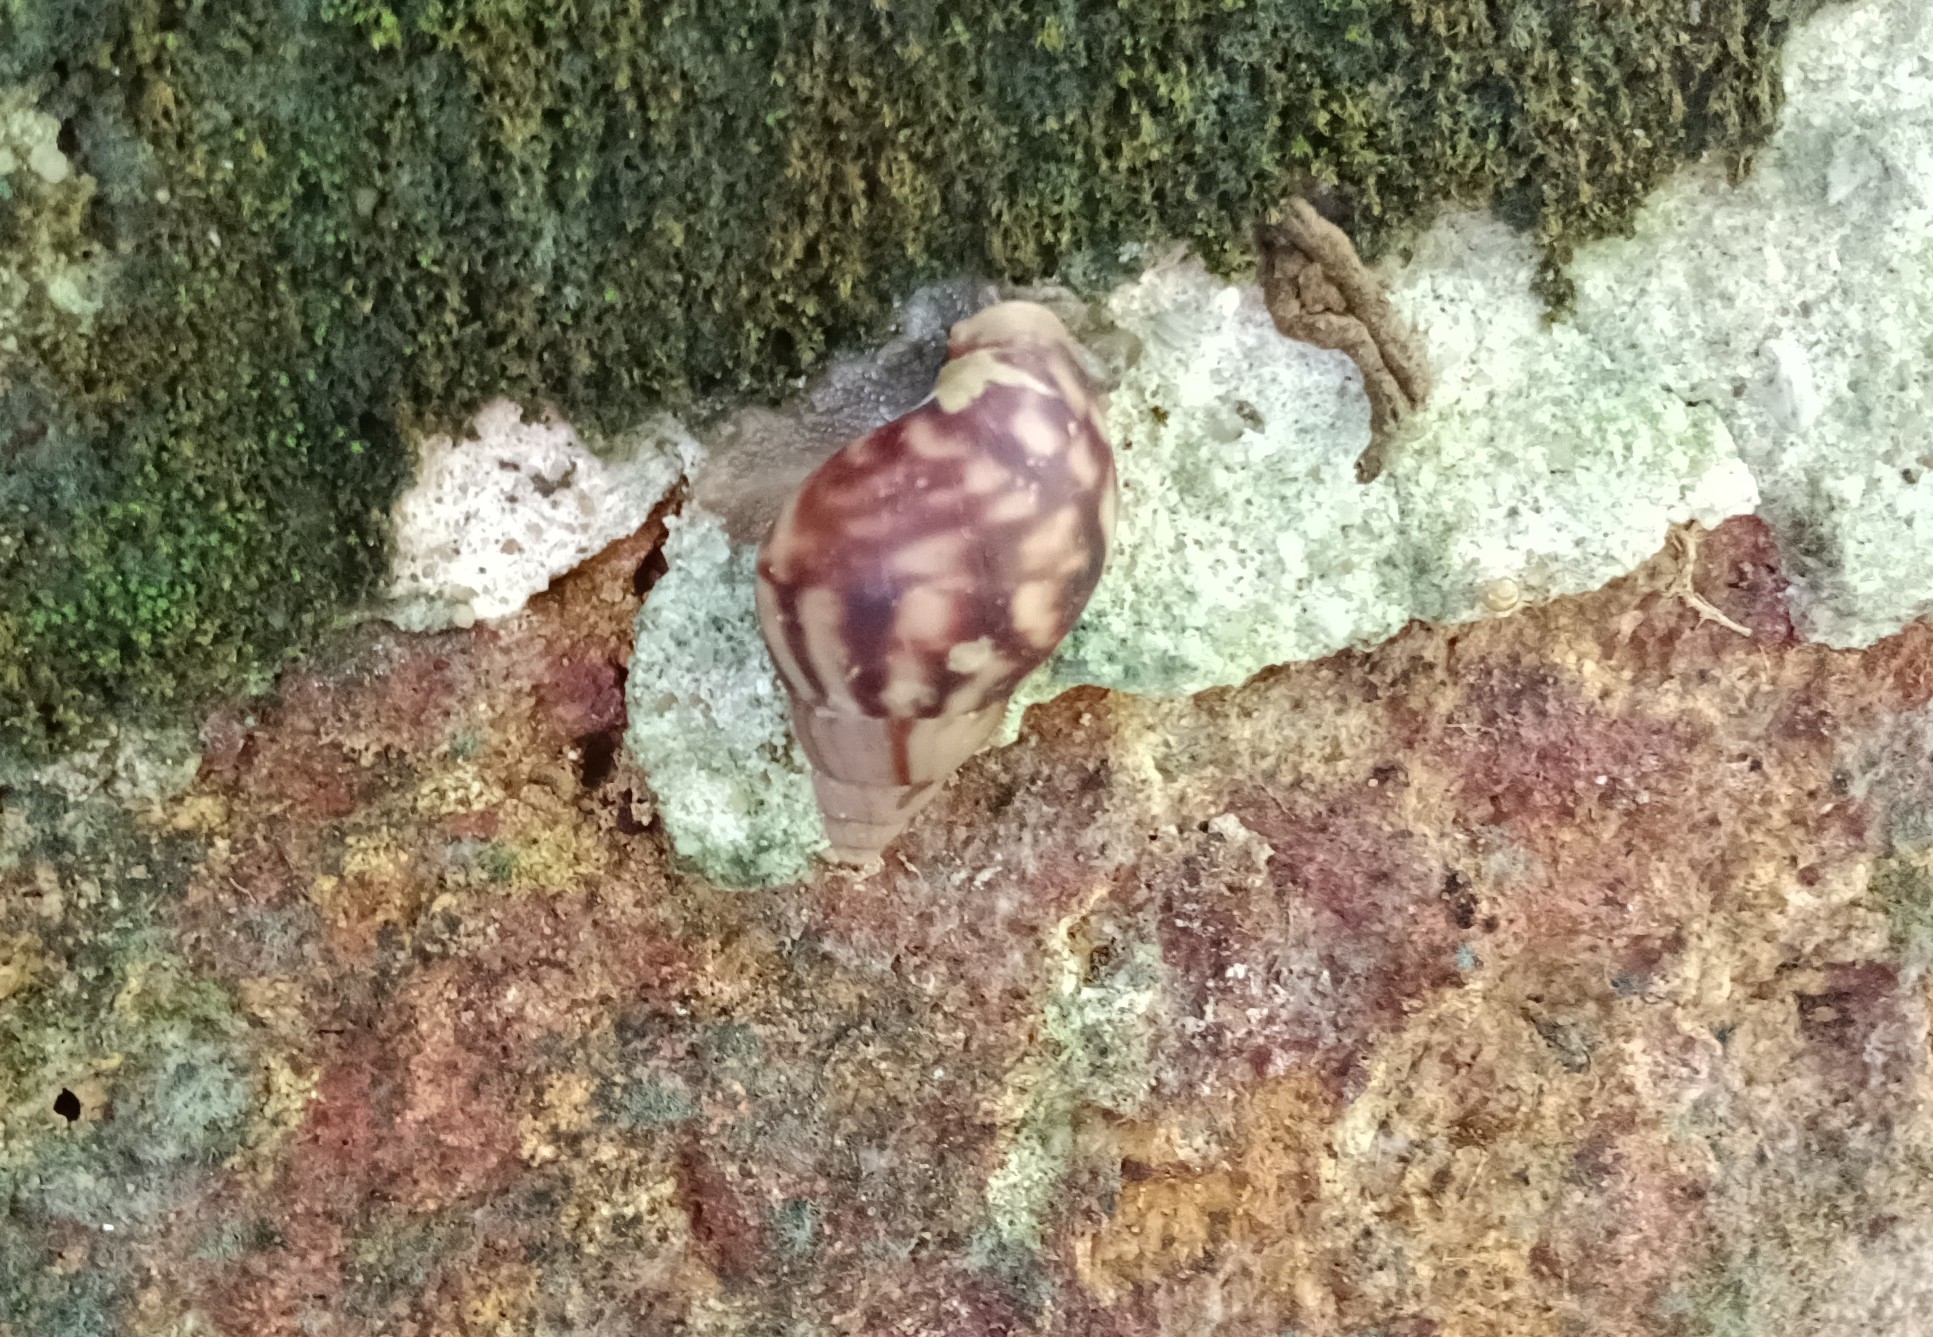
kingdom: Animalia
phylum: Mollusca
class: Gastropoda
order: Stylommatophora
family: Achatinidae
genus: Lissachatina
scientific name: Lissachatina fulica
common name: Giant african snail
